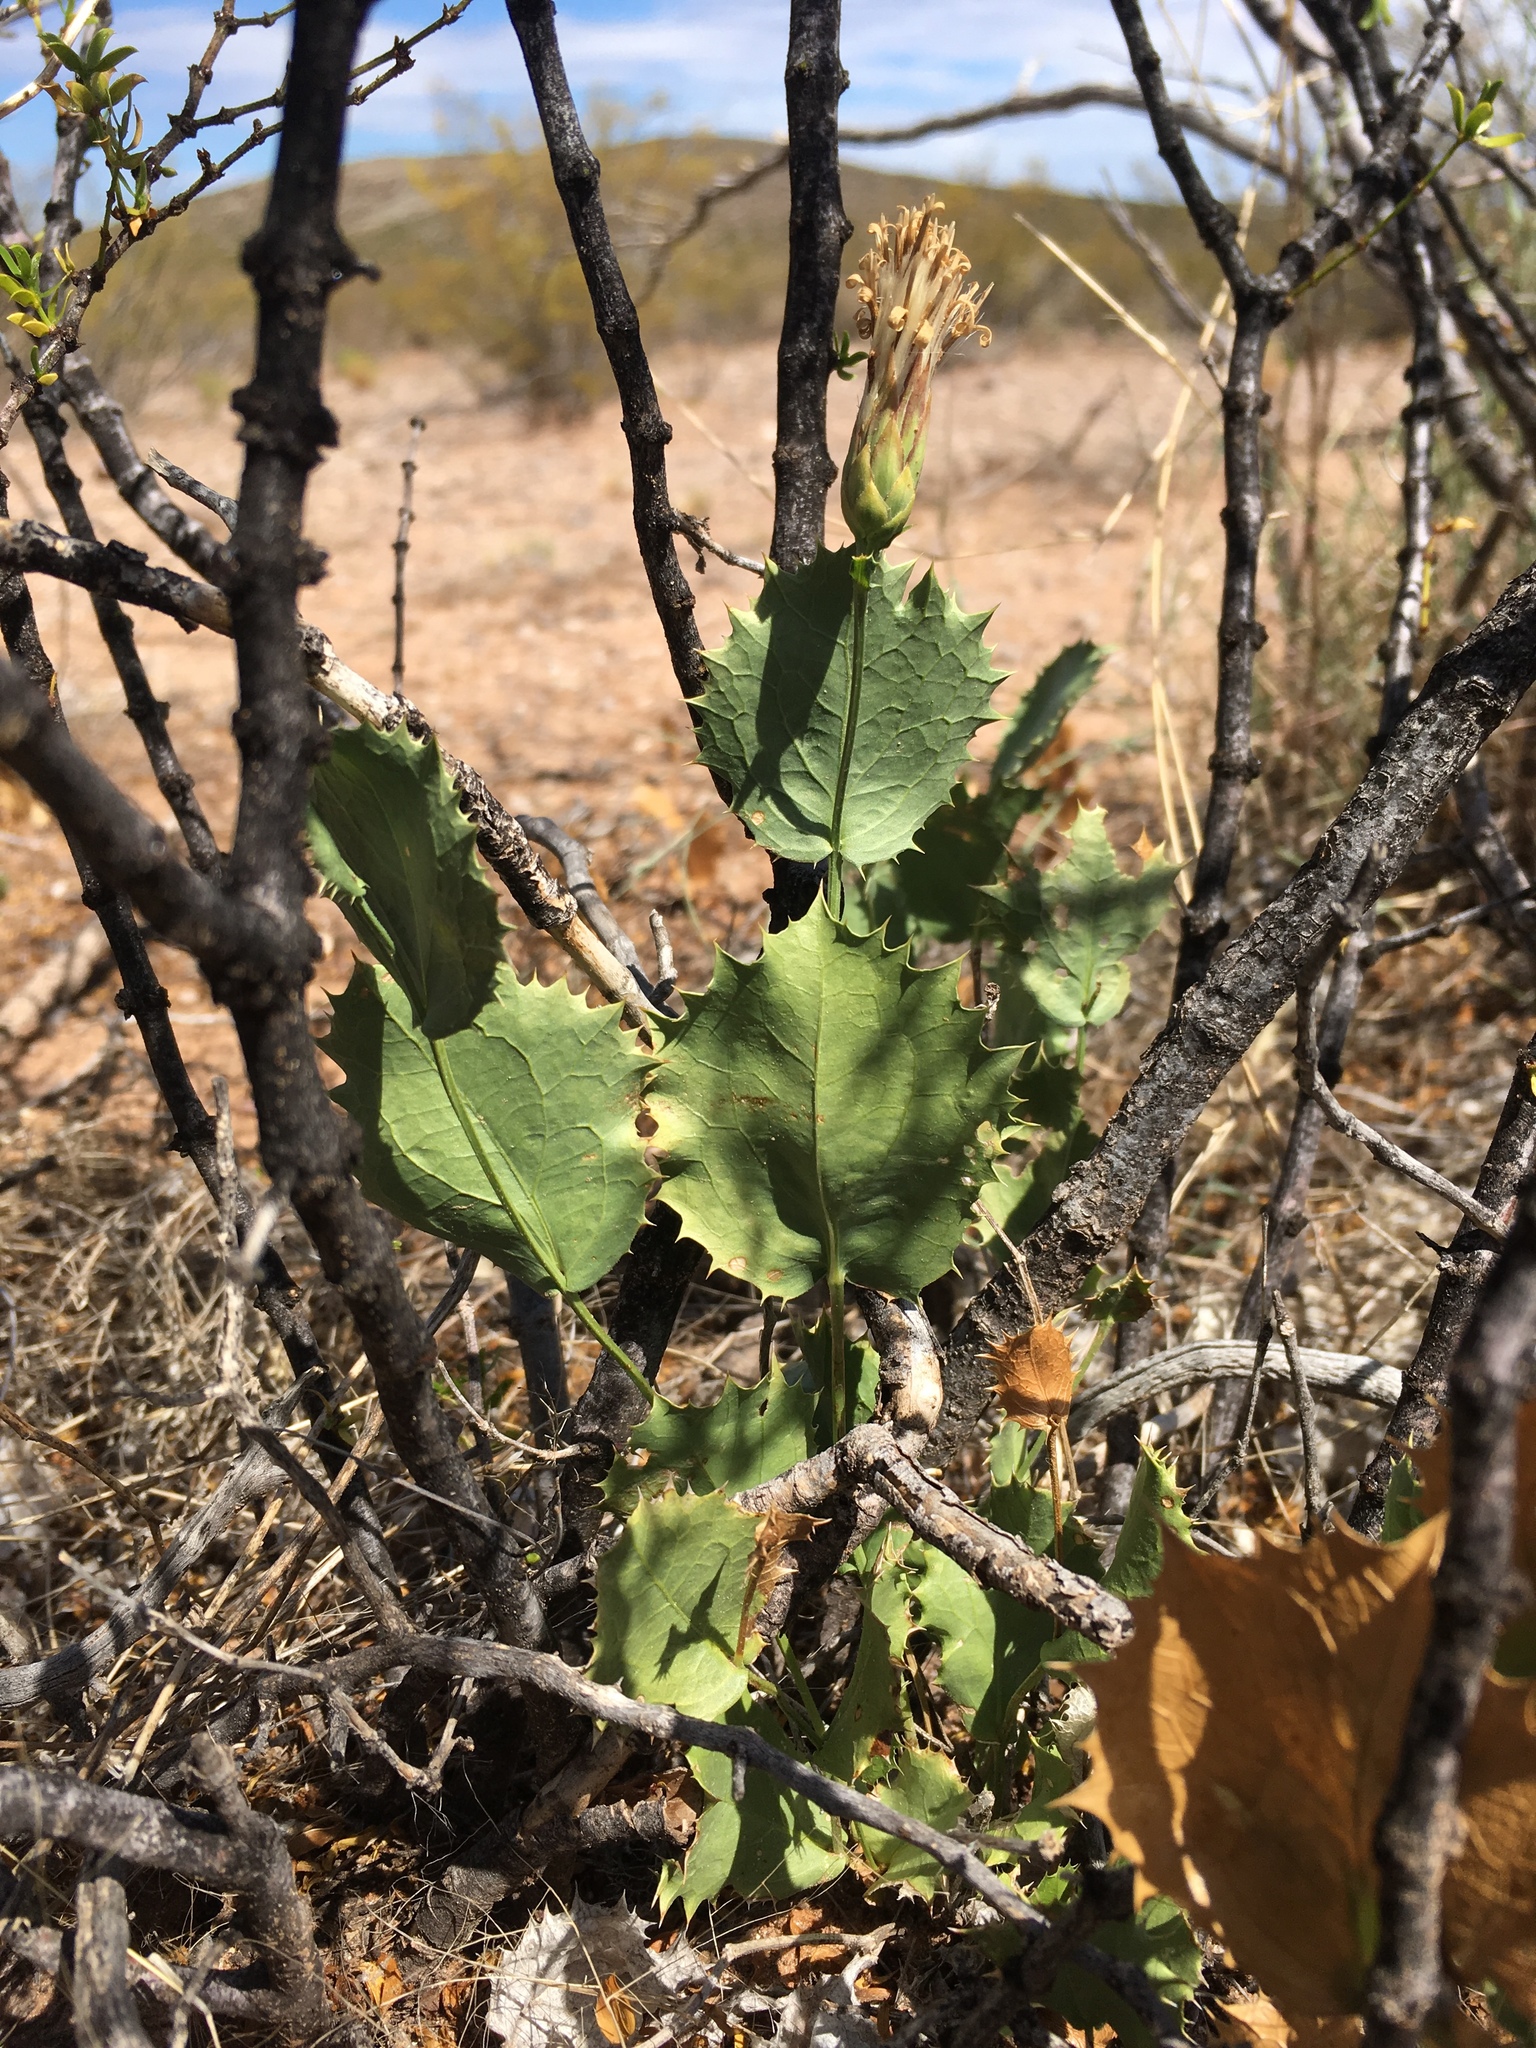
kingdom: Plantae
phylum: Tracheophyta
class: Magnoliopsida
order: Asterales
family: Asteraceae
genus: Acourtia
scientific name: Acourtia nana
